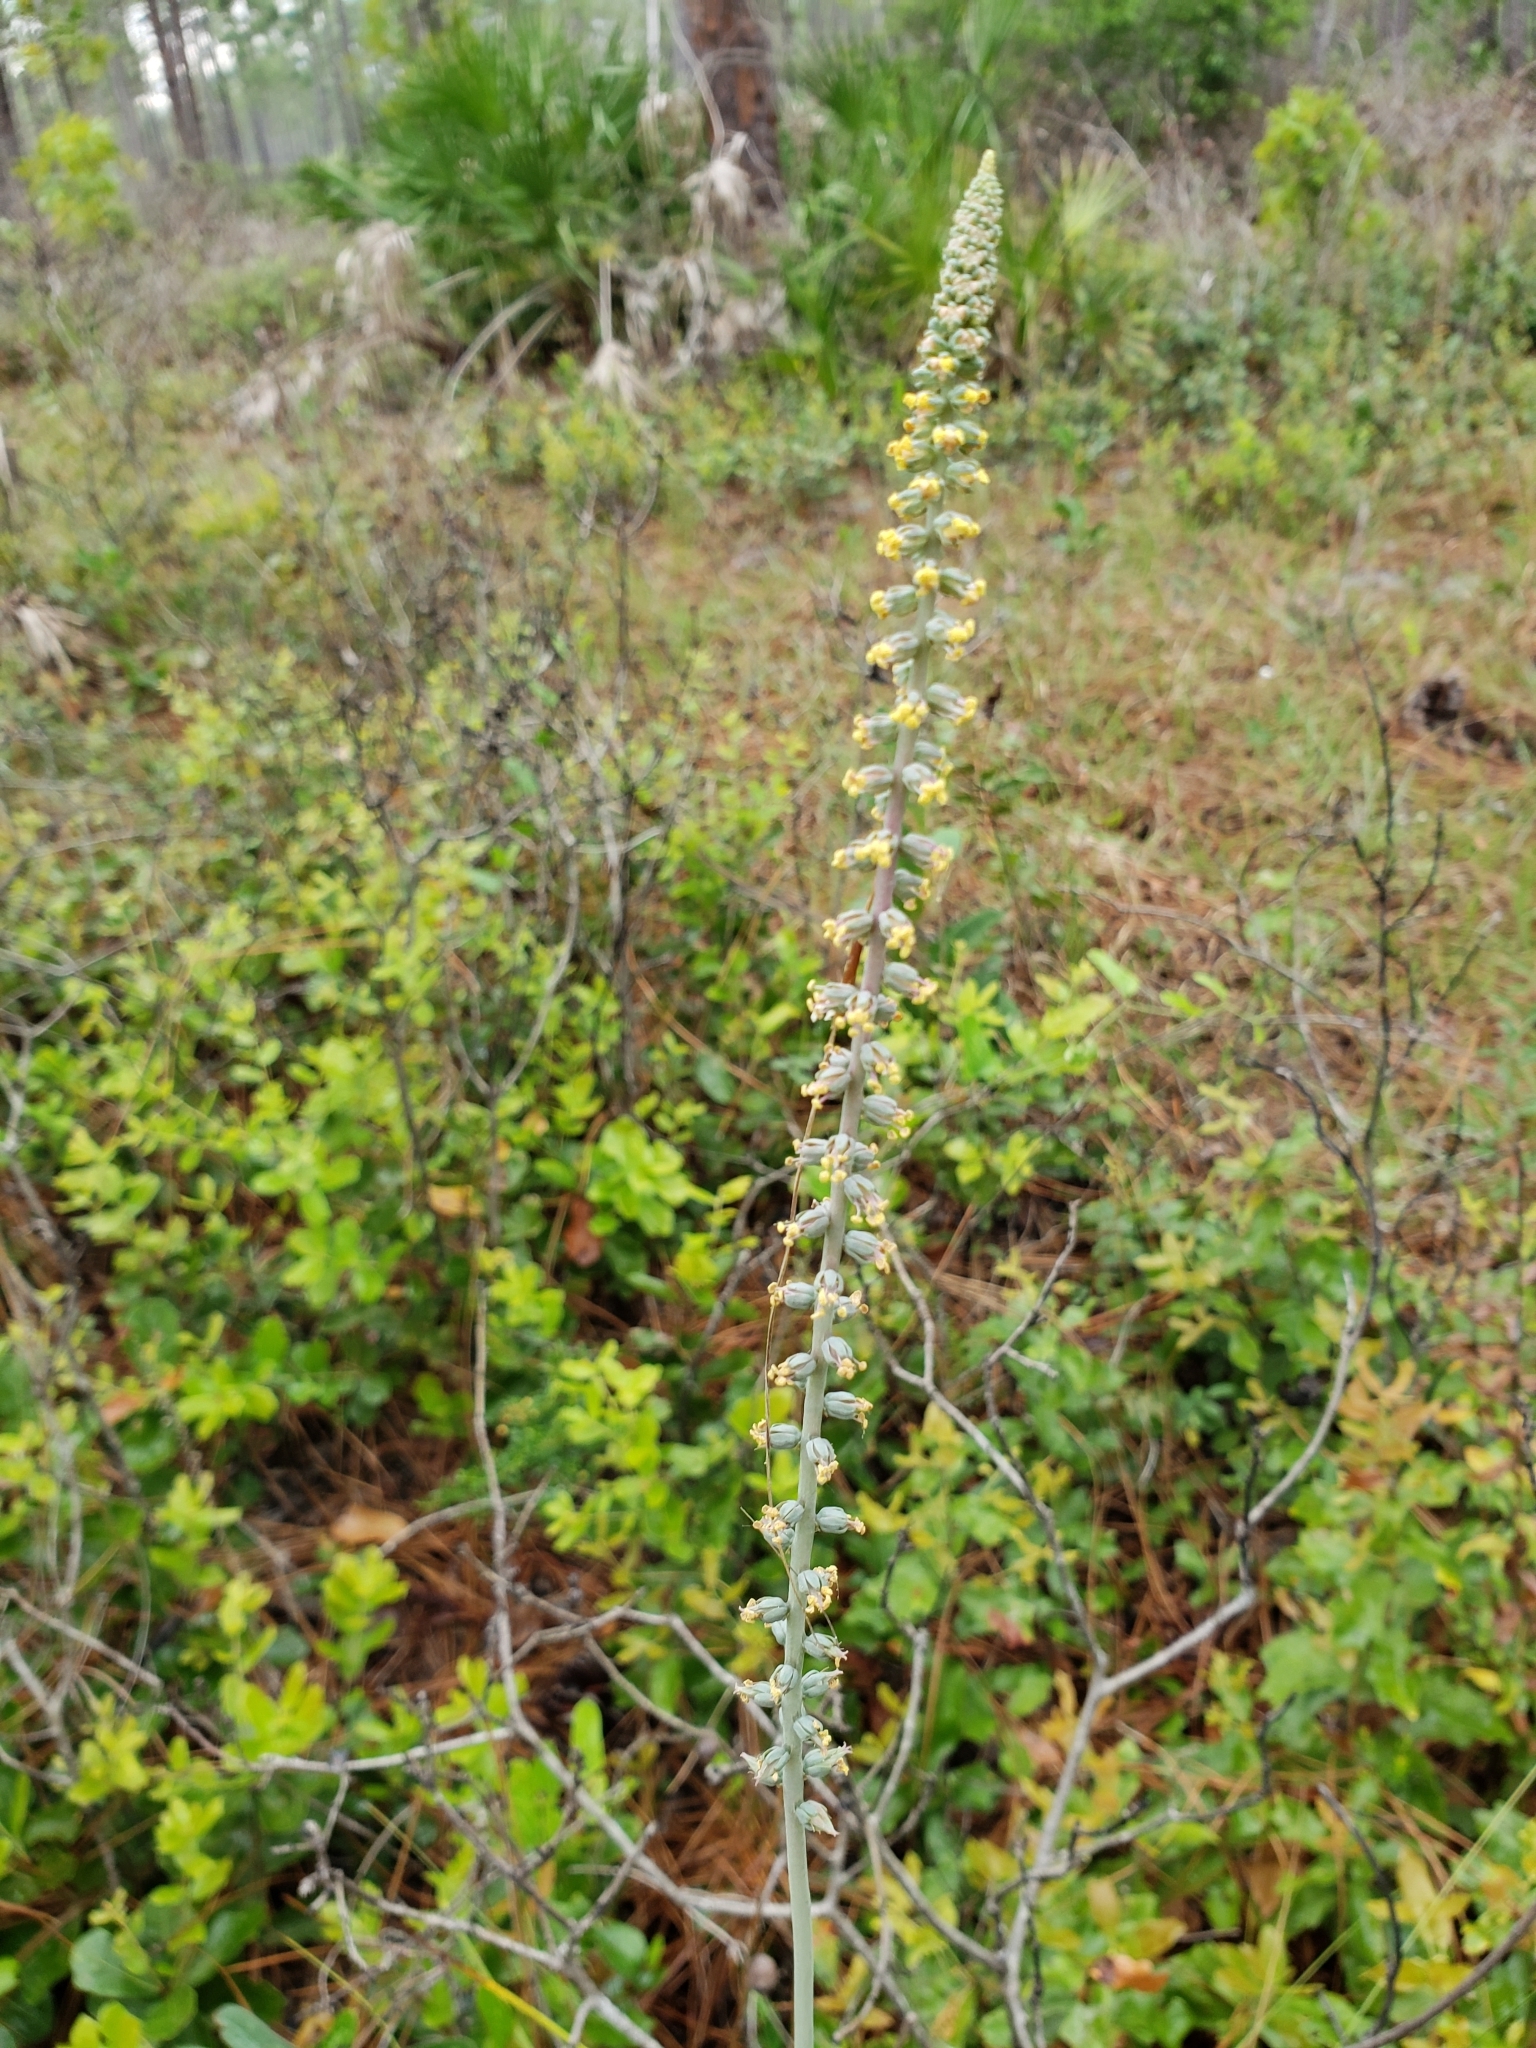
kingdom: Plantae
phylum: Tracheophyta
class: Liliopsida
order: Liliales
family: Melanthiaceae
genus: Schoenocaulon
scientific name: Schoenocaulon dubium
